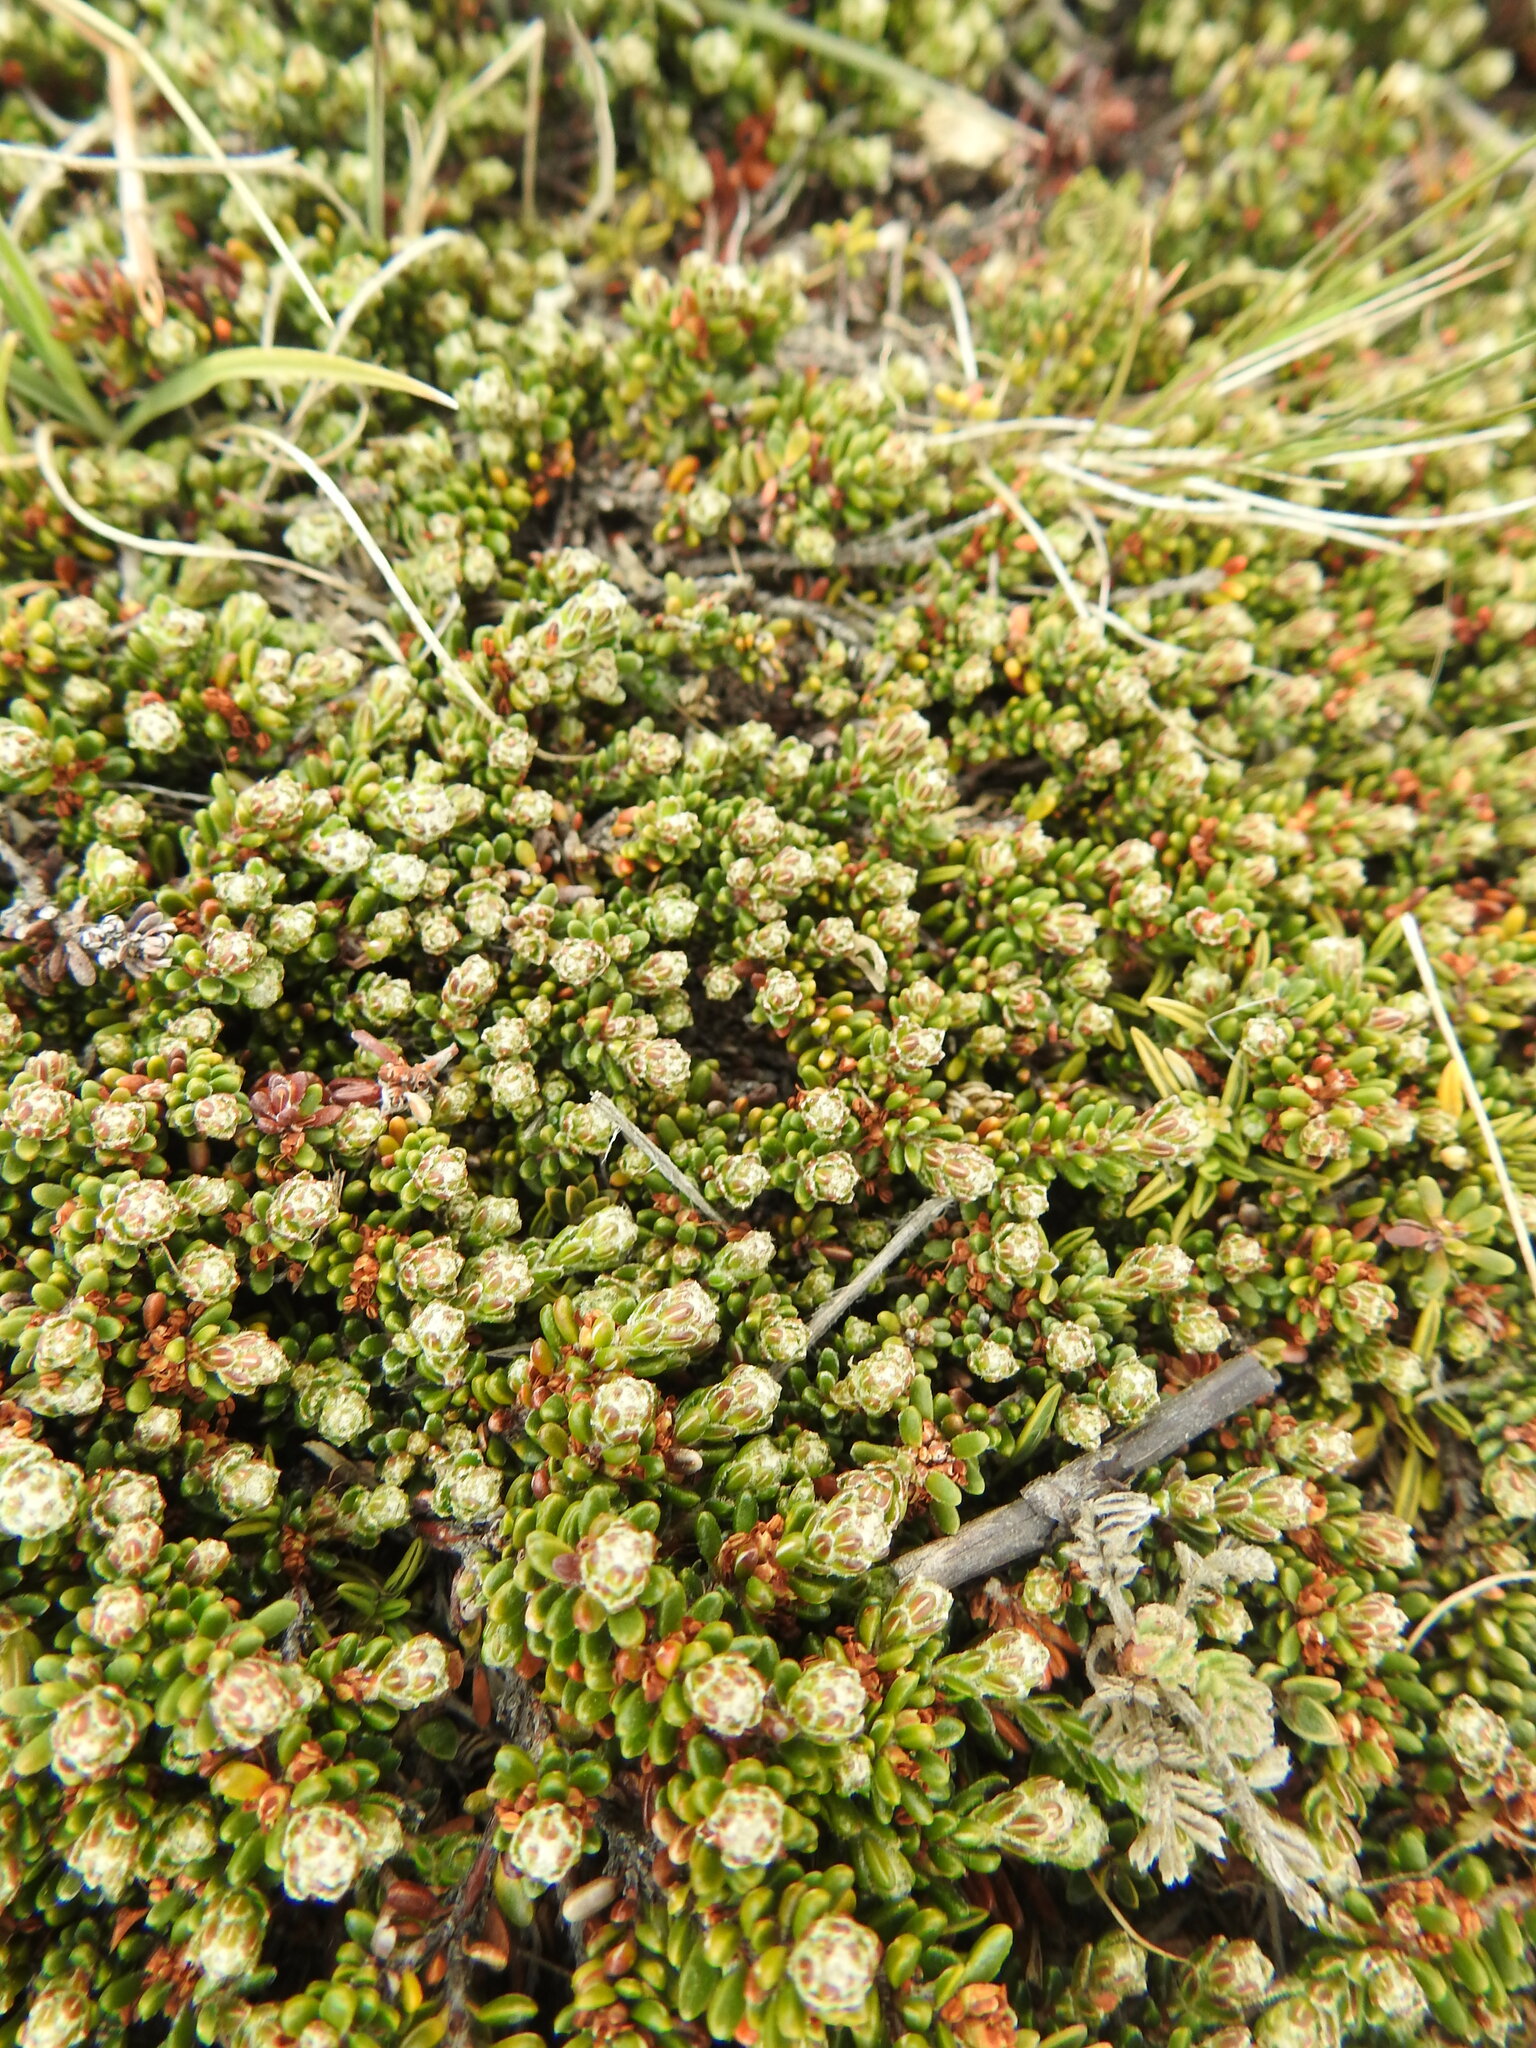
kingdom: Plantae
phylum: Tracheophyta
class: Magnoliopsida
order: Ericales
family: Ericaceae
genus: Empetrum
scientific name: Empetrum rubrum
